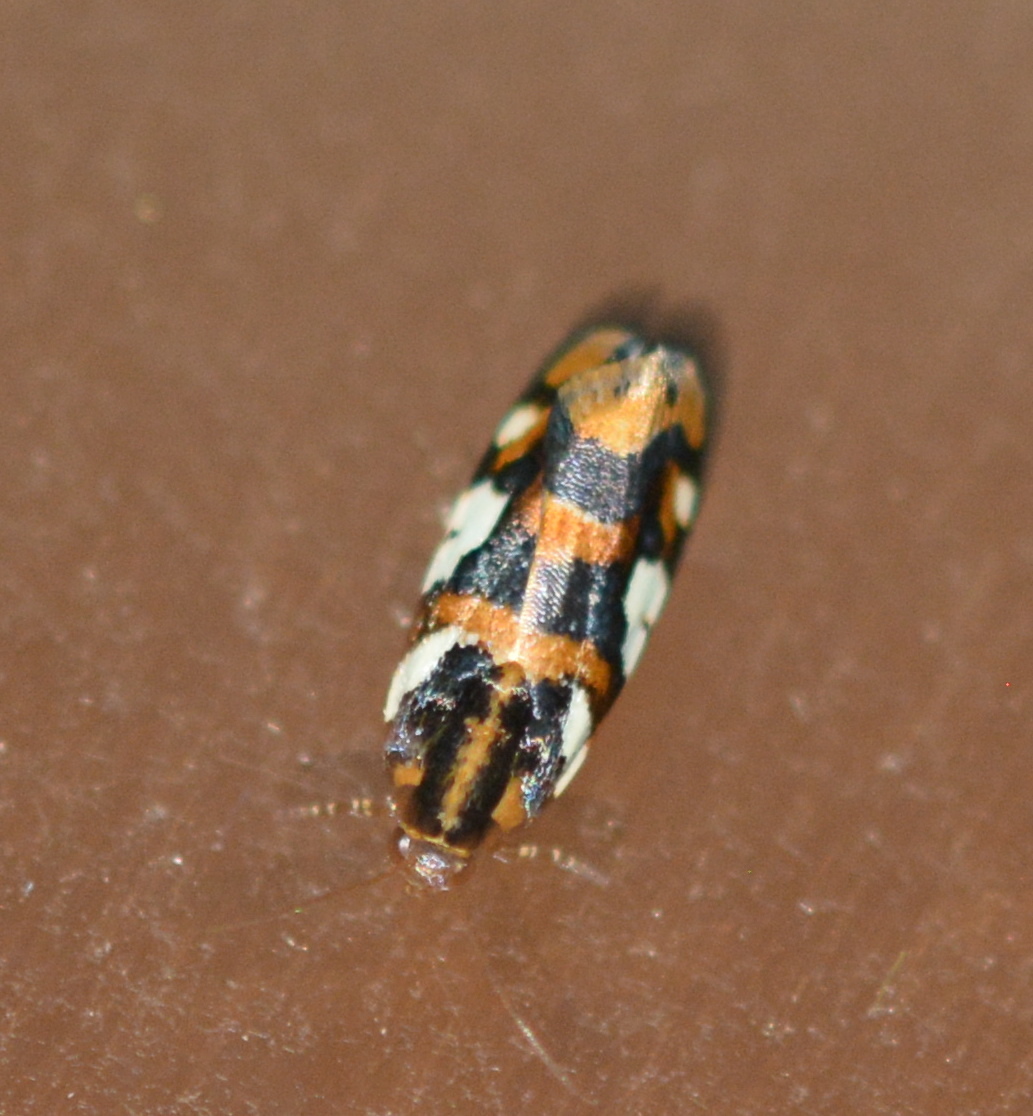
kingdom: Animalia
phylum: Arthropoda
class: Insecta
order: Lepidoptera
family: Noctuidae
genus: Acontia
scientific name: Acontia dama
